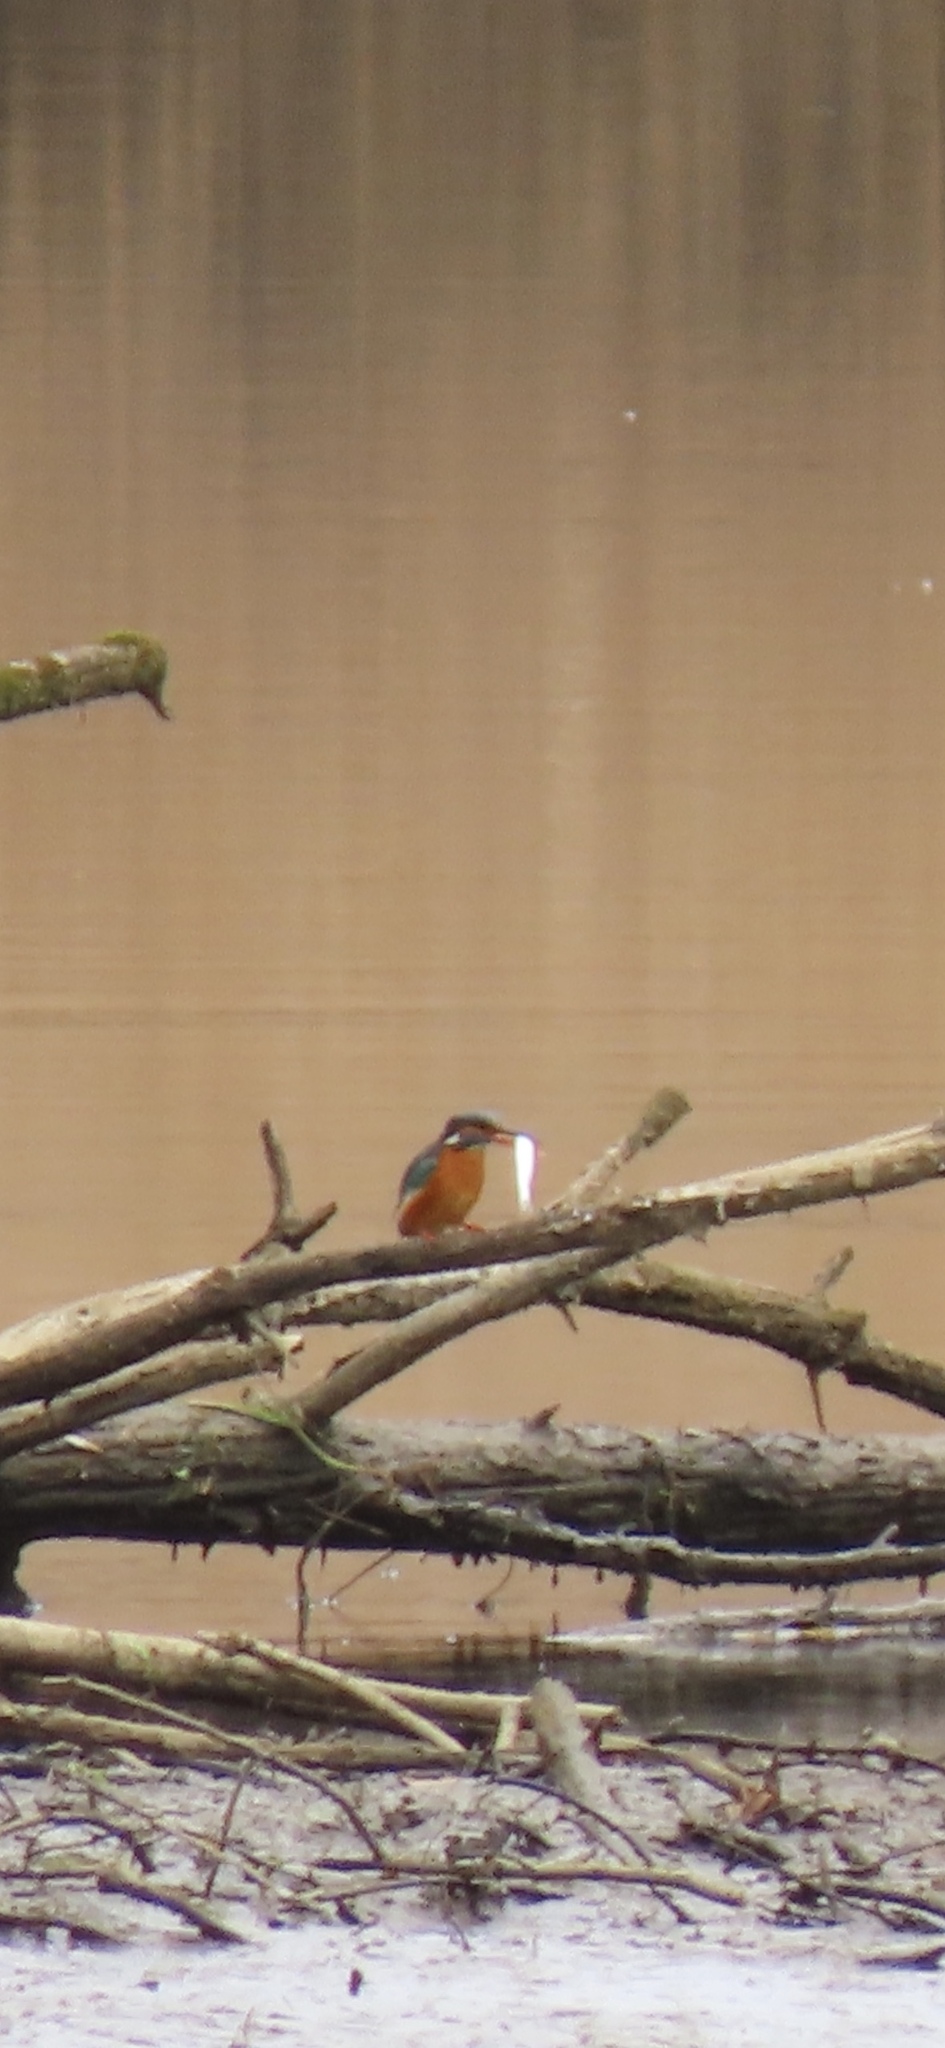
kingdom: Animalia
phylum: Chordata
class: Aves
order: Coraciiformes
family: Alcedinidae
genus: Alcedo
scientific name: Alcedo atthis
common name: Common kingfisher
